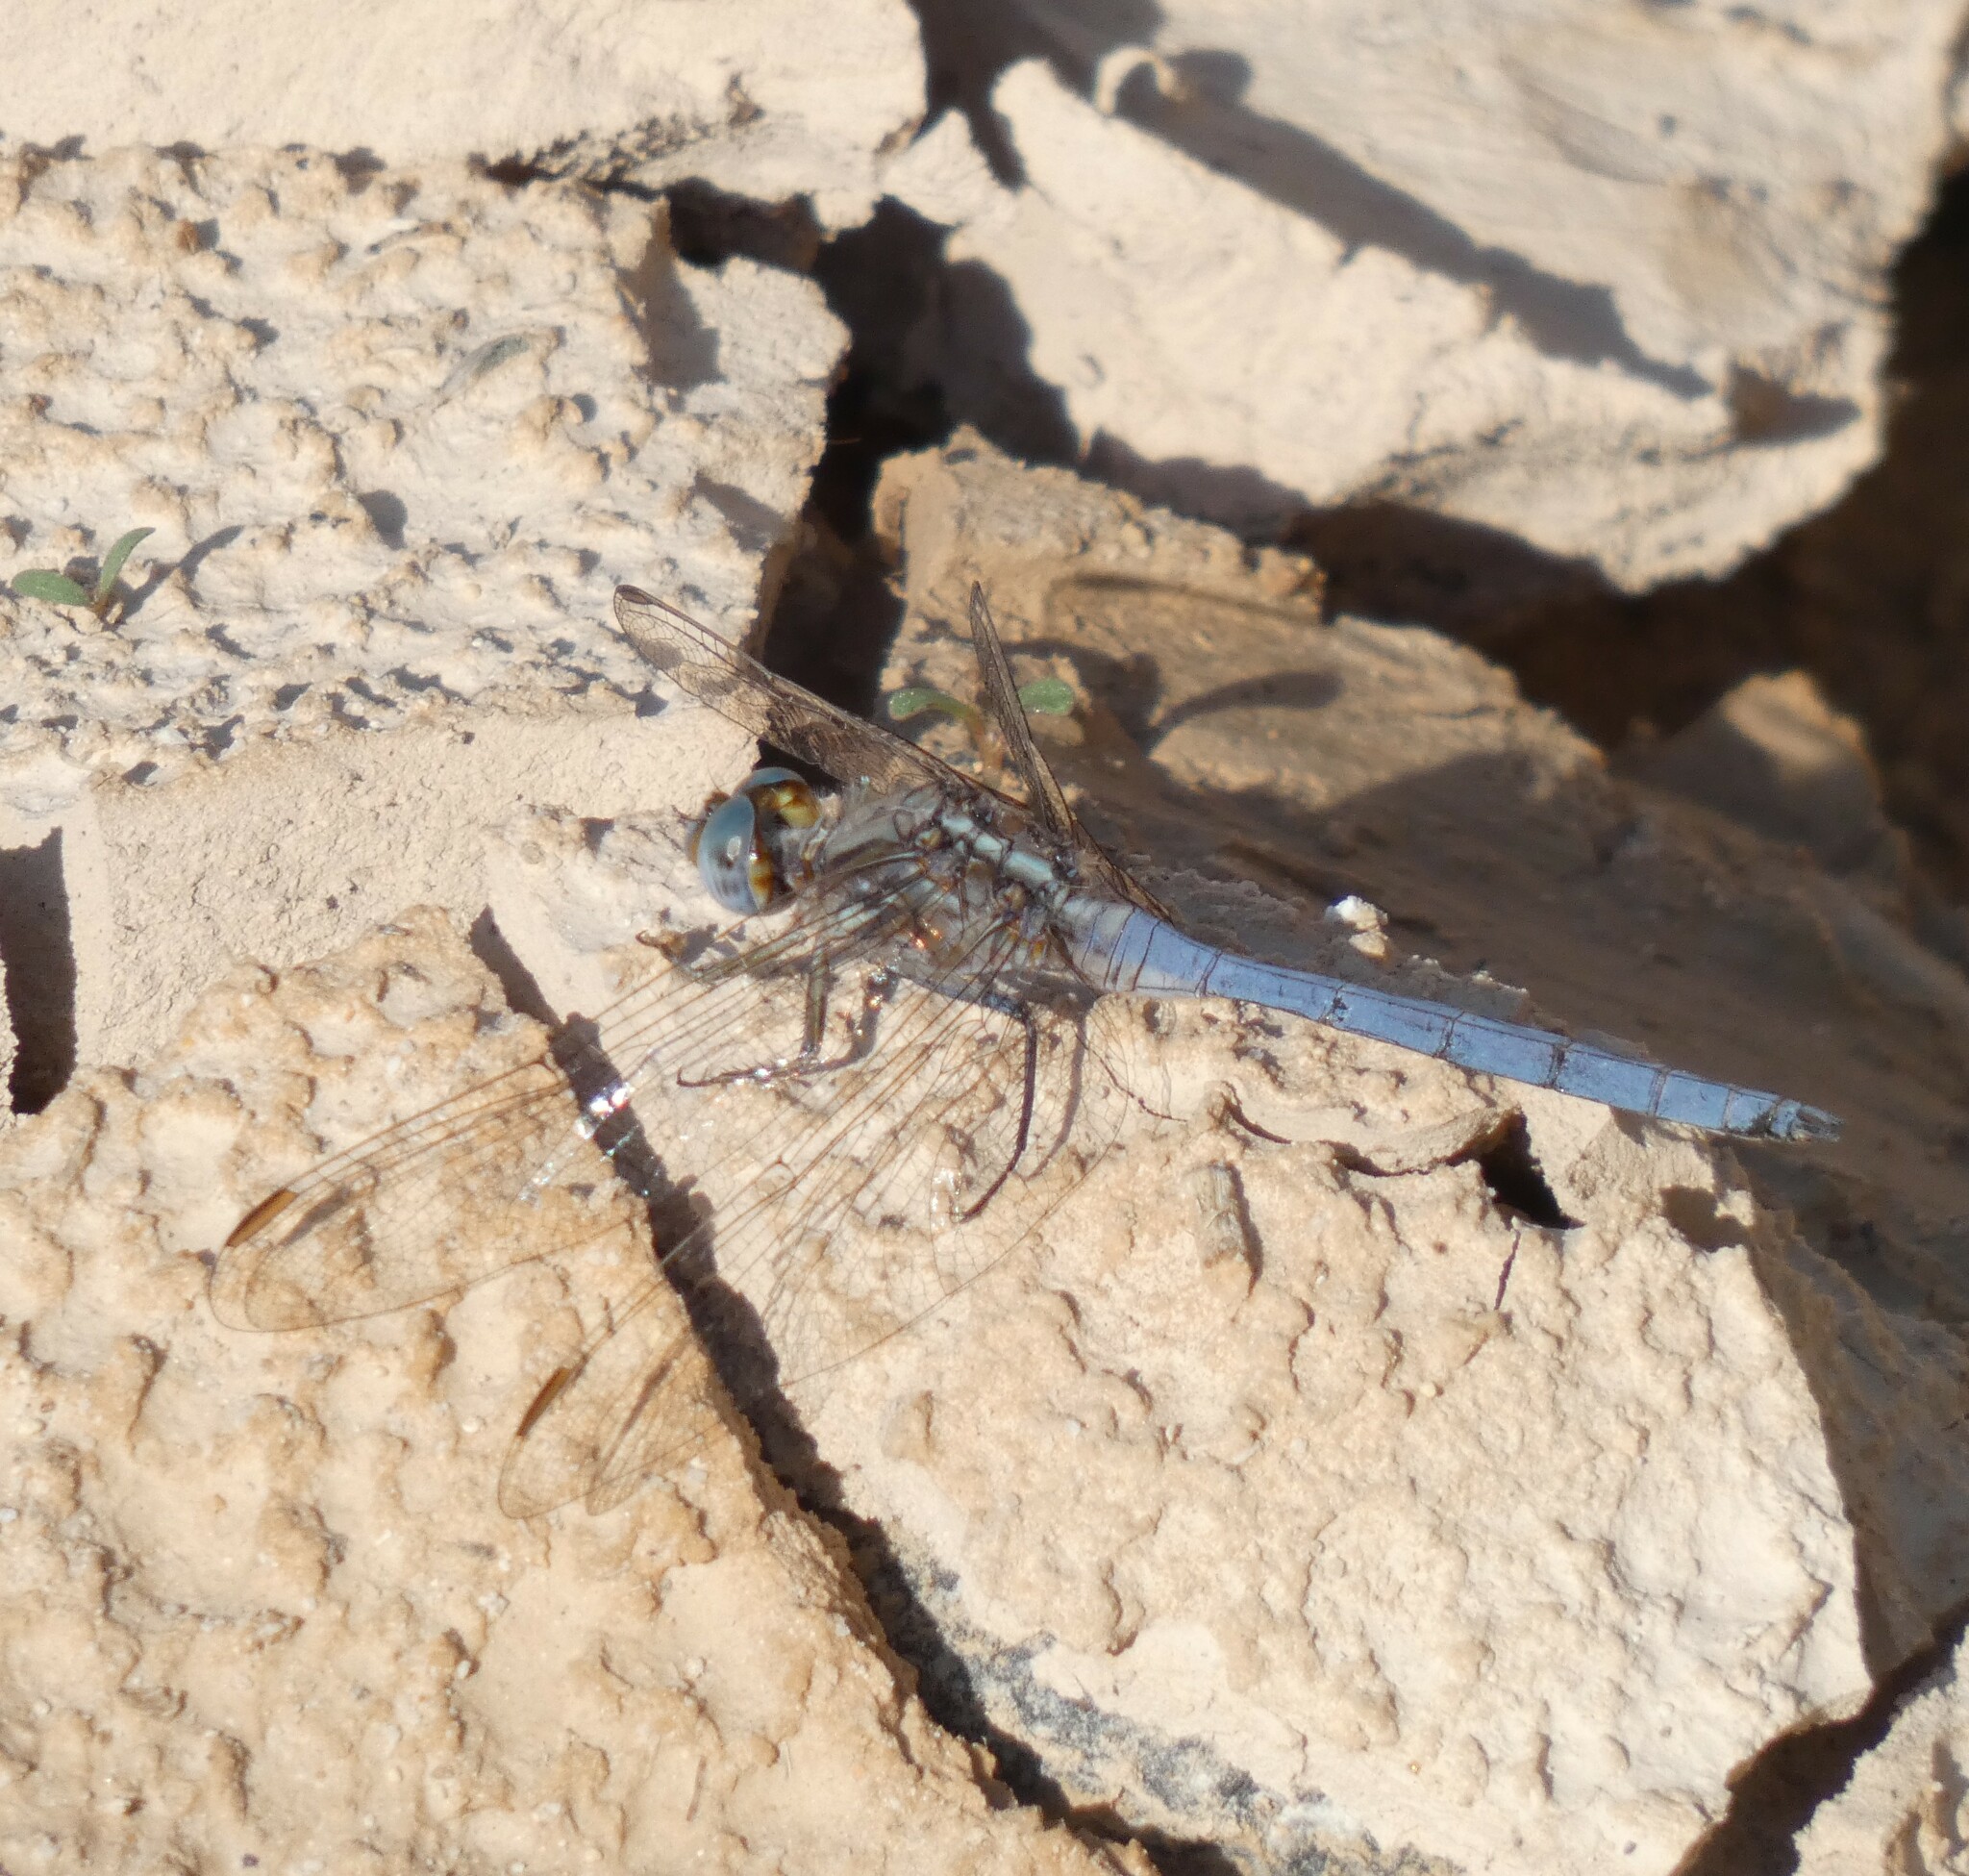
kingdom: Animalia
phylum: Arthropoda
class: Insecta
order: Odonata
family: Libellulidae
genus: Orthetrum
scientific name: Orthetrum chrysostigma
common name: Epaulet skimmer
